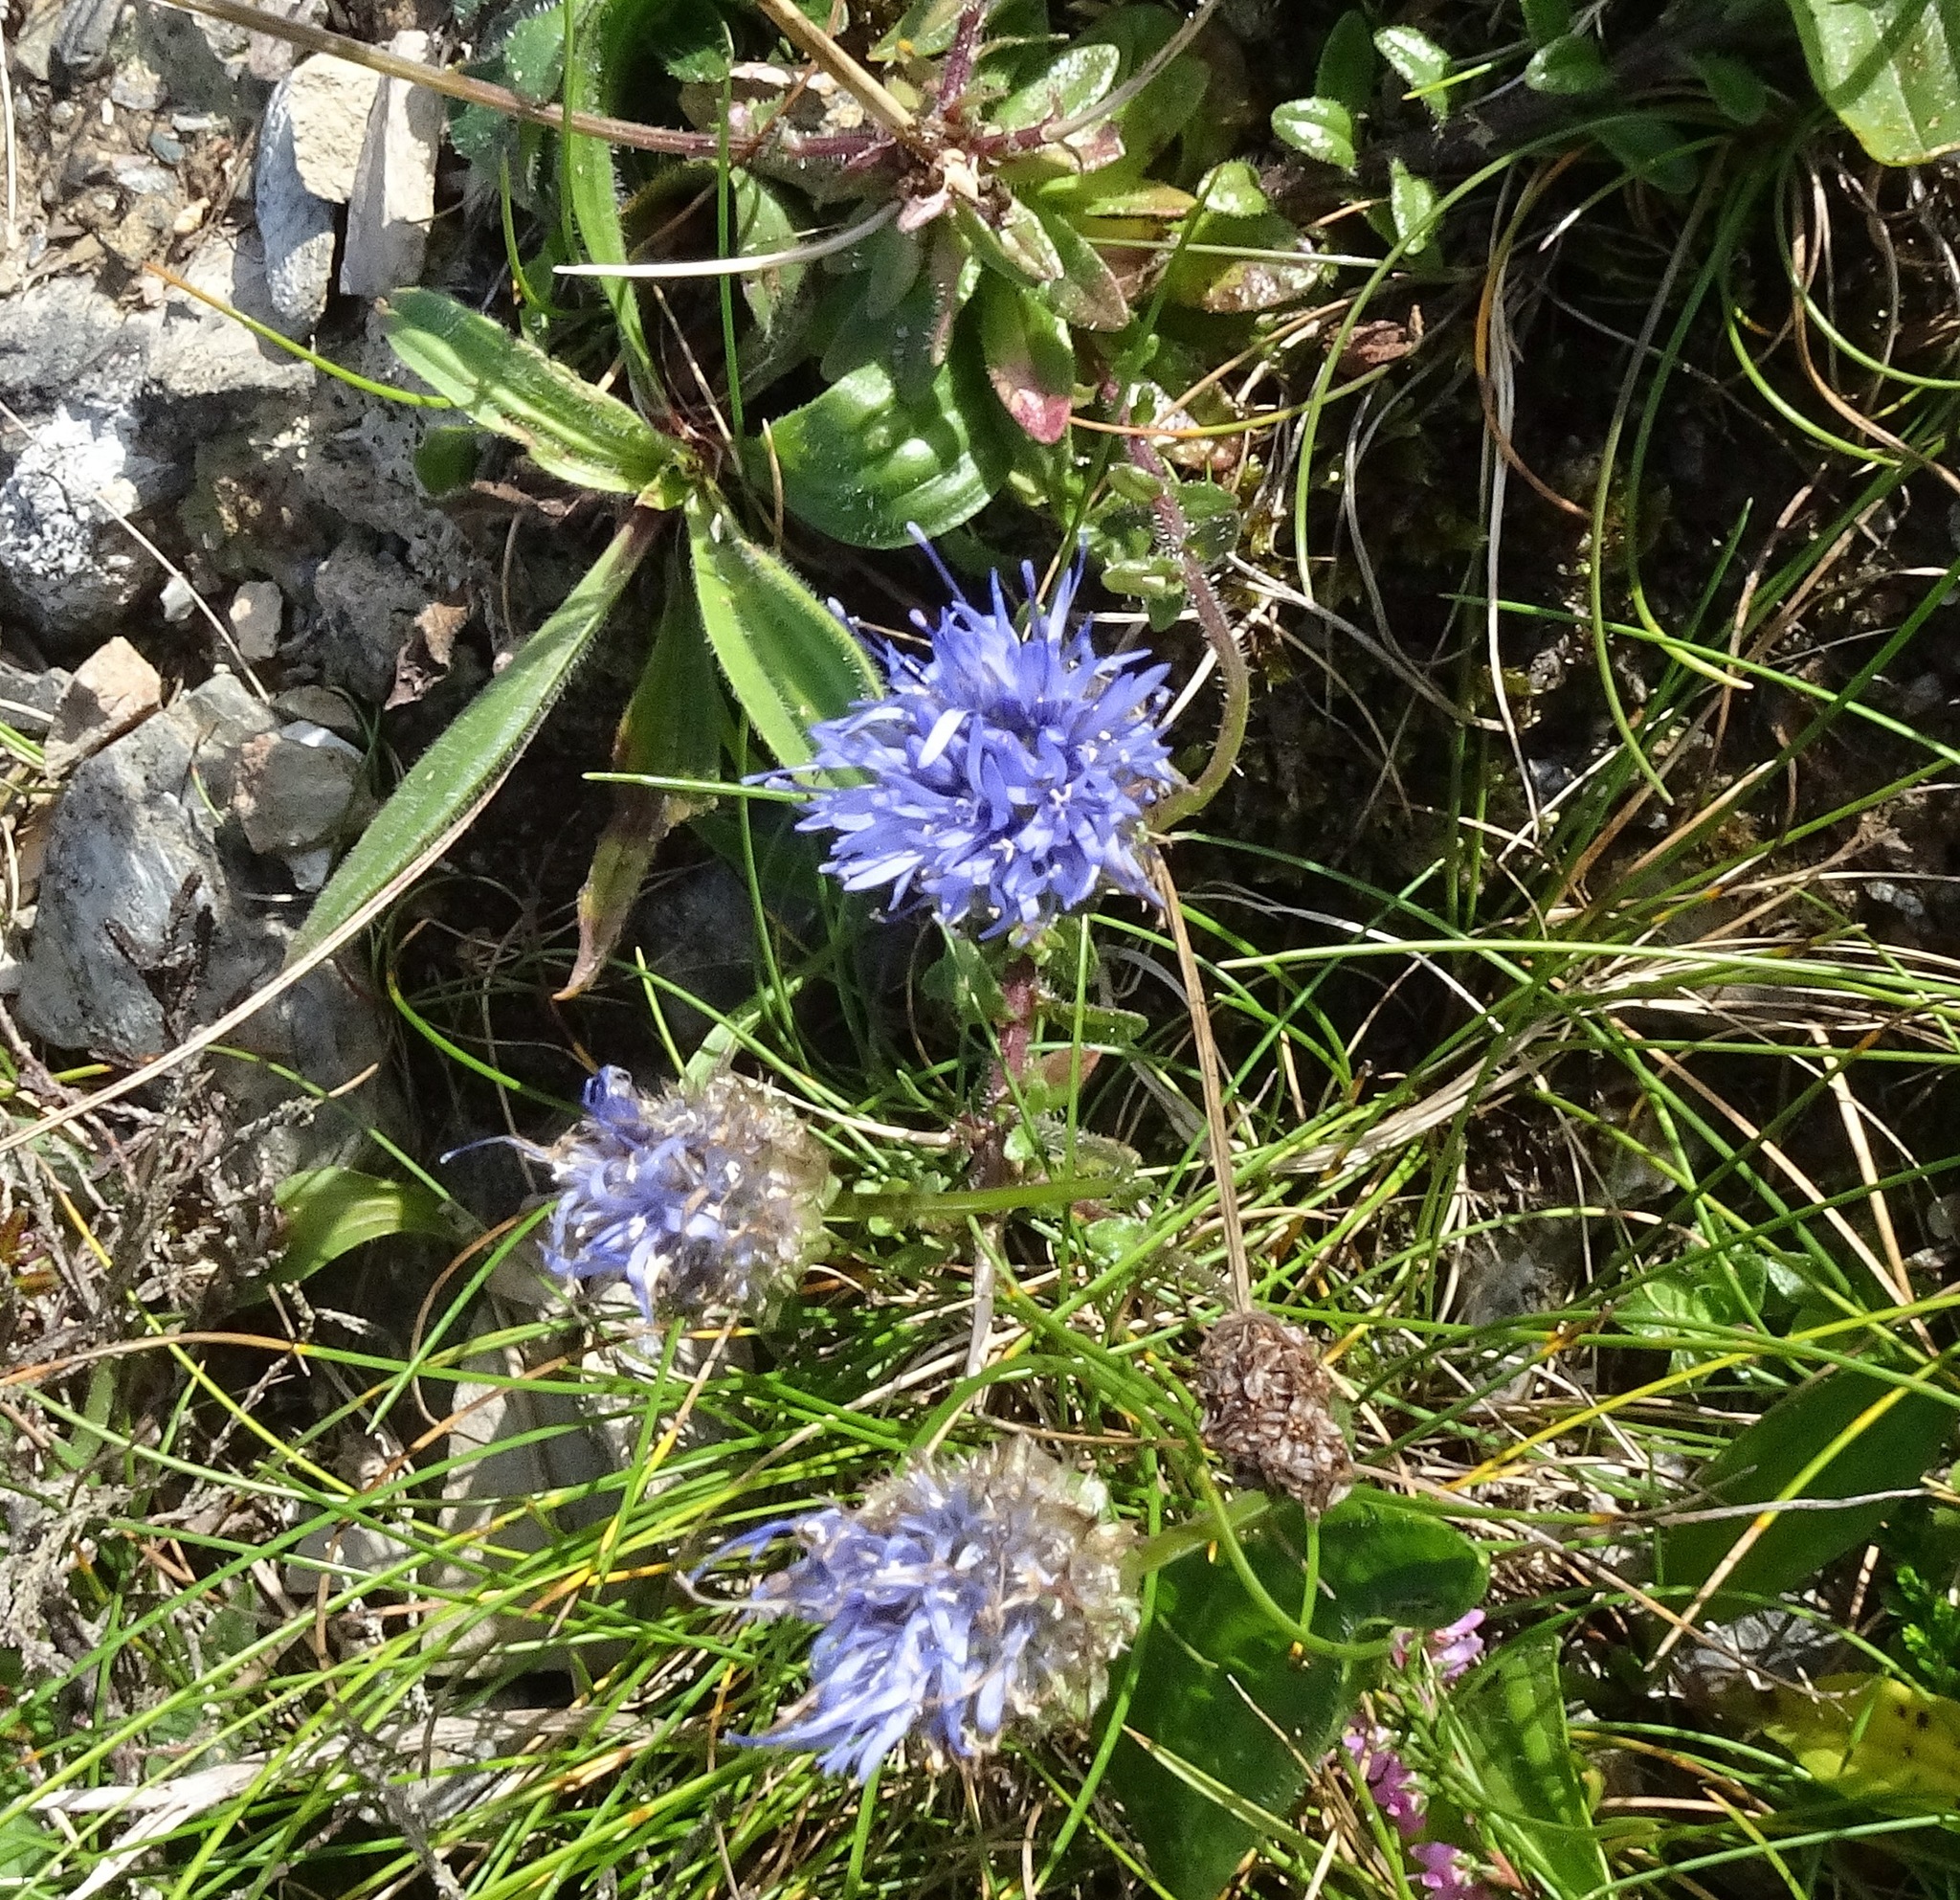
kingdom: Plantae
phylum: Tracheophyta
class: Magnoliopsida
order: Asterales
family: Campanulaceae
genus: Jasione
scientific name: Jasione montana
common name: Sheep's-bit
